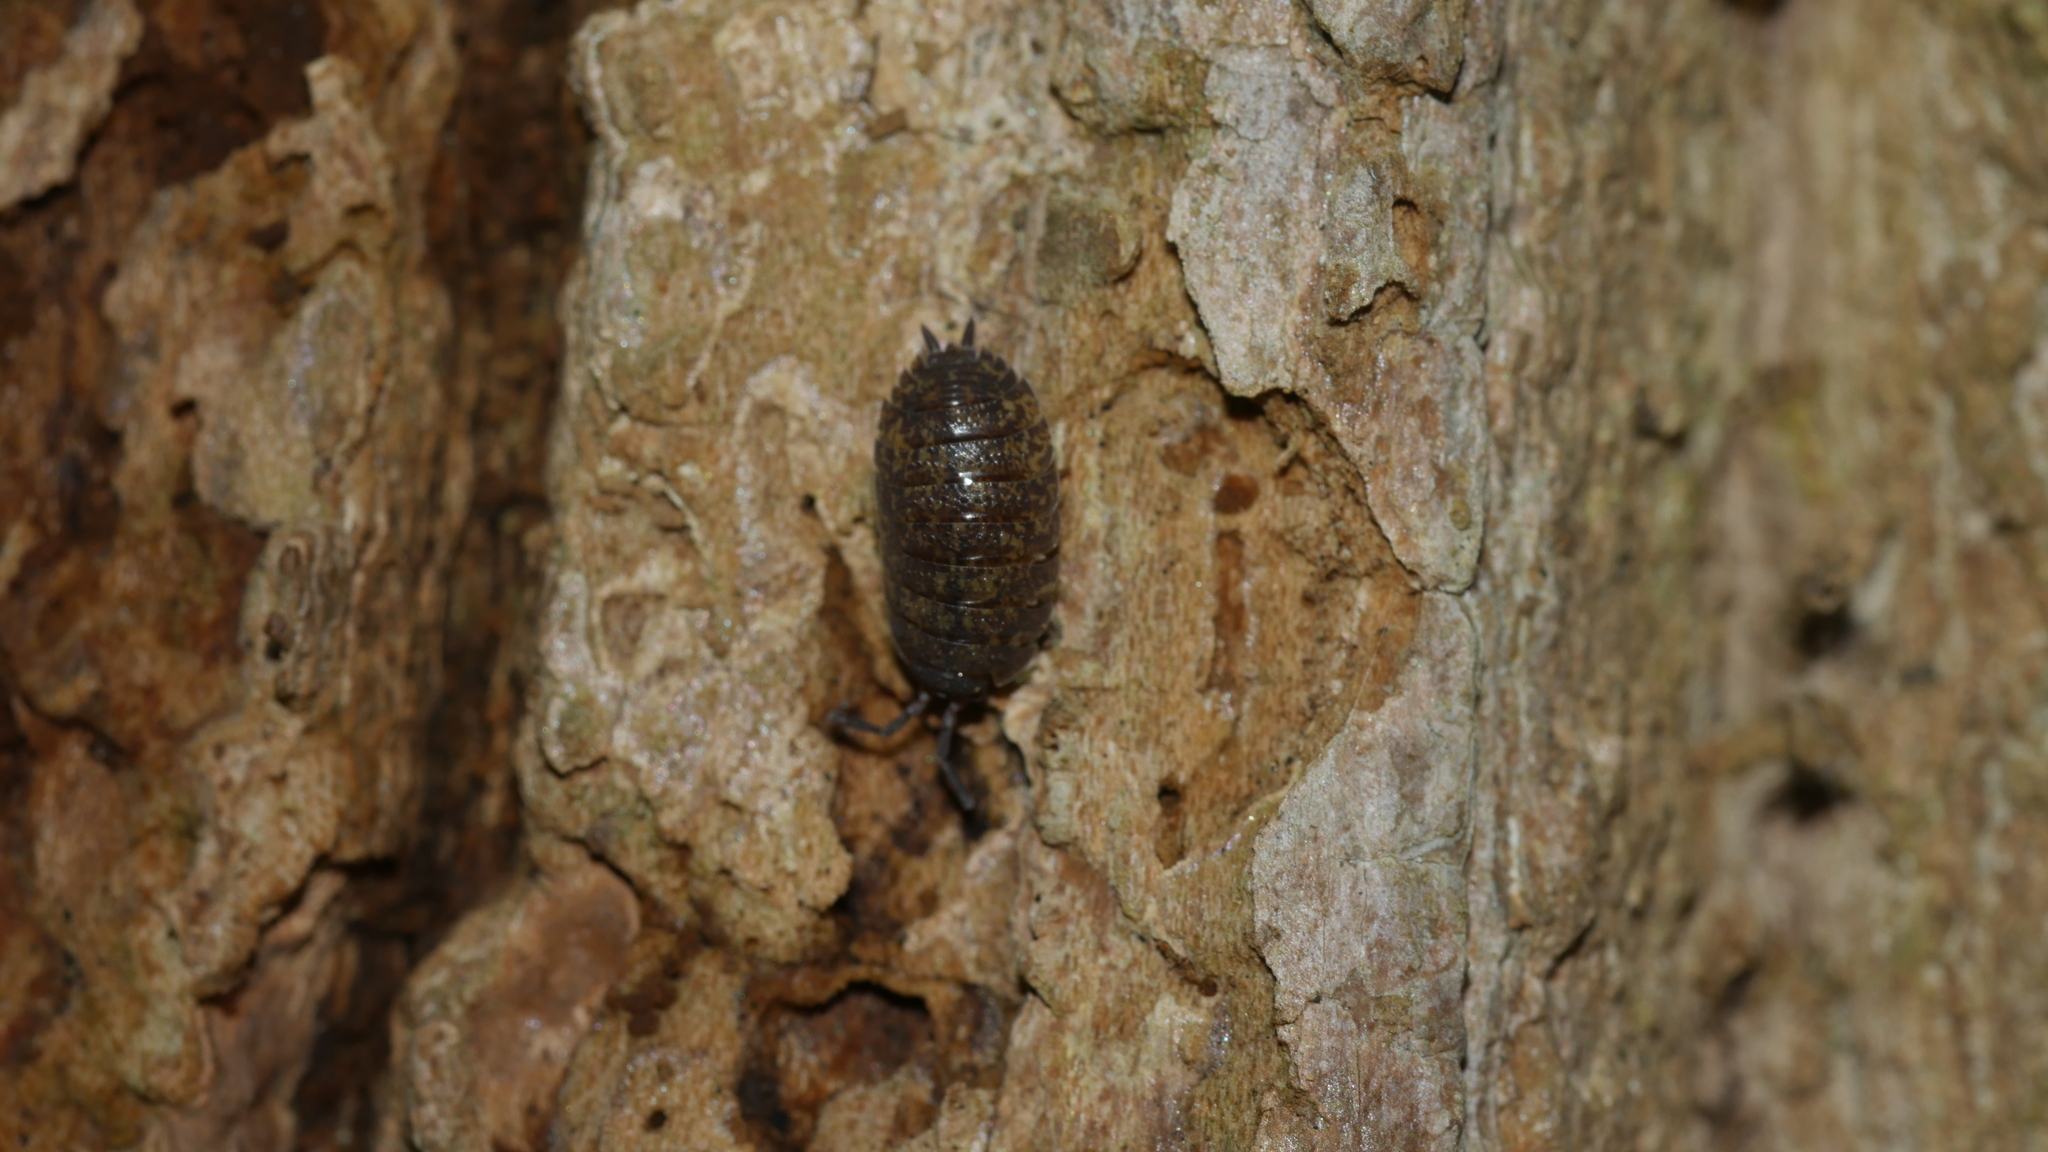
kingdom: Animalia
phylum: Arthropoda
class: Malacostraca
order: Isopoda
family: Porcellionidae
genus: Porcellio
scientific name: Porcellio scaber
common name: Common rough woodlouse
